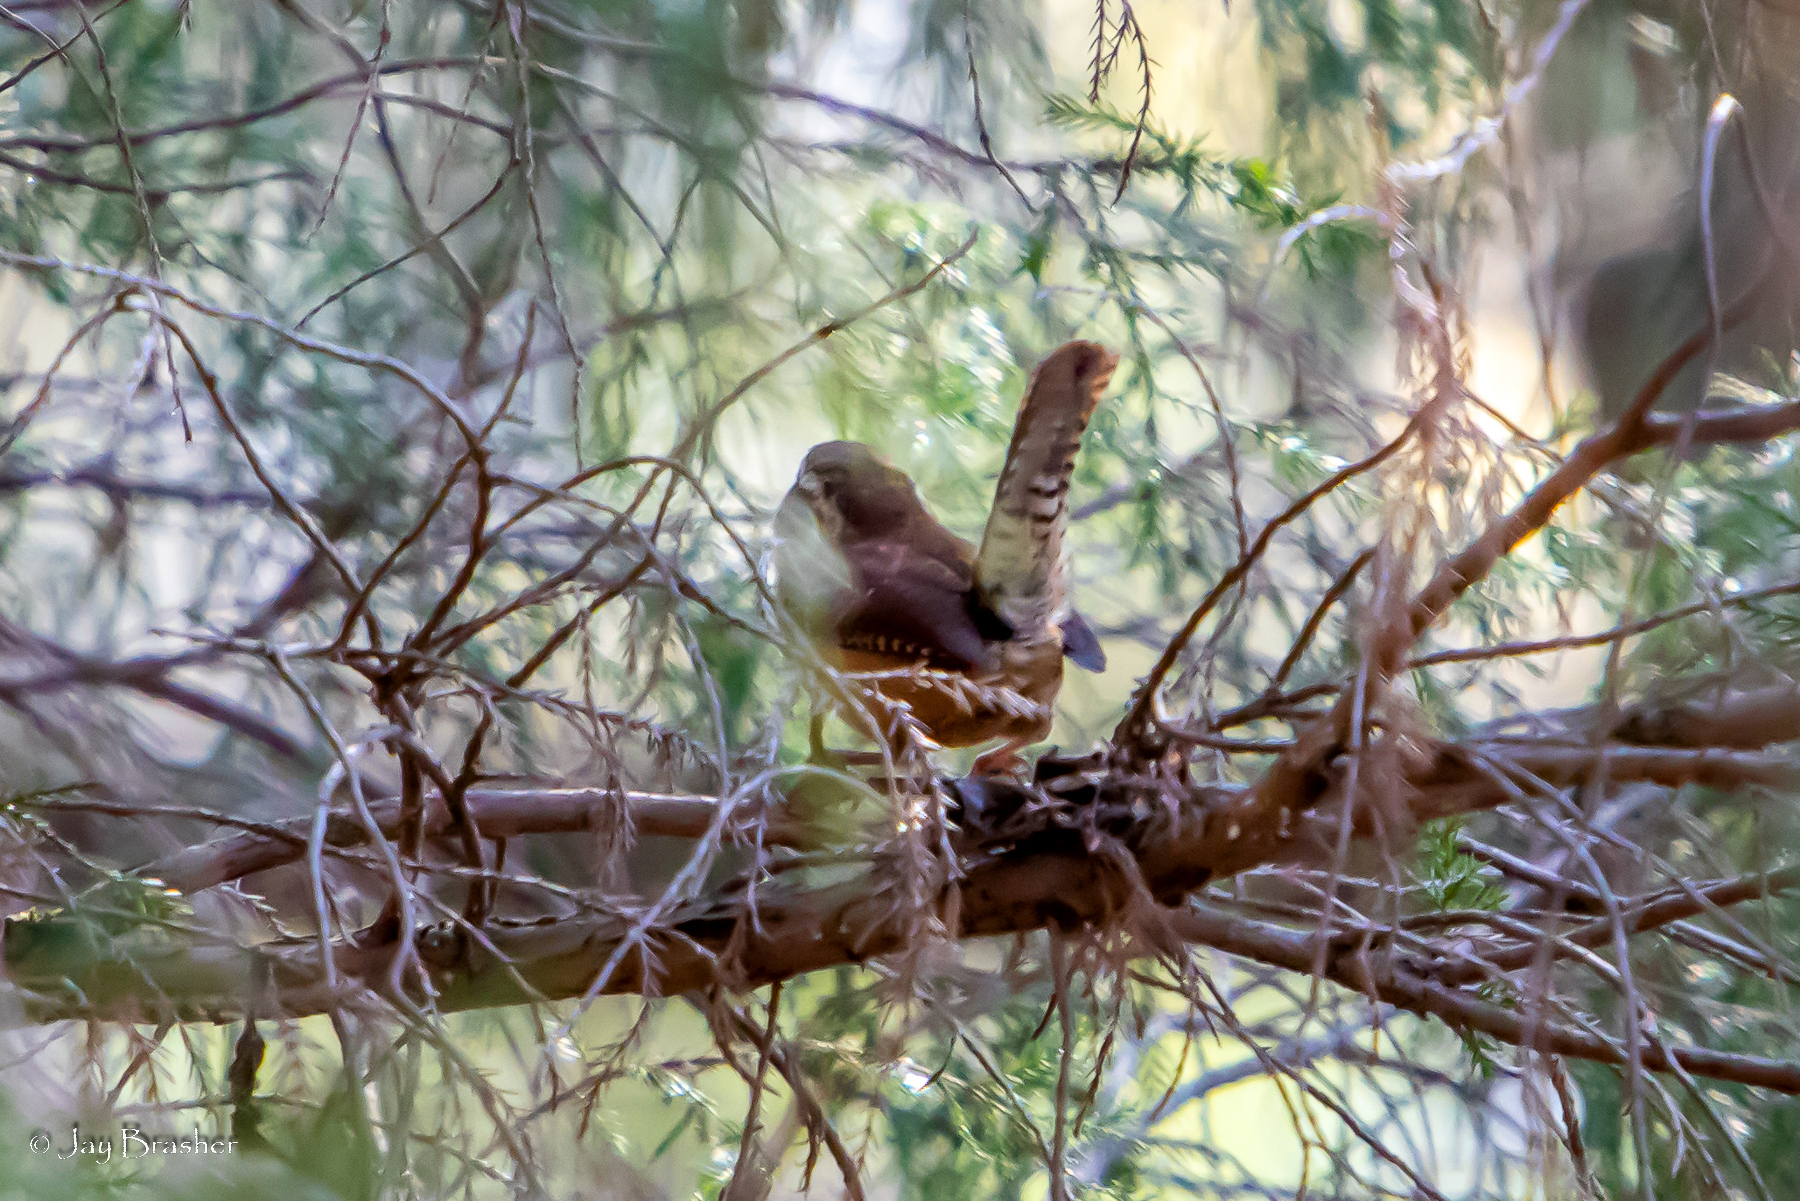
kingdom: Animalia
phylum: Chordata
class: Aves
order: Passeriformes
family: Troglodytidae
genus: Thryothorus
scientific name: Thryothorus ludovicianus
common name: Carolina wren
